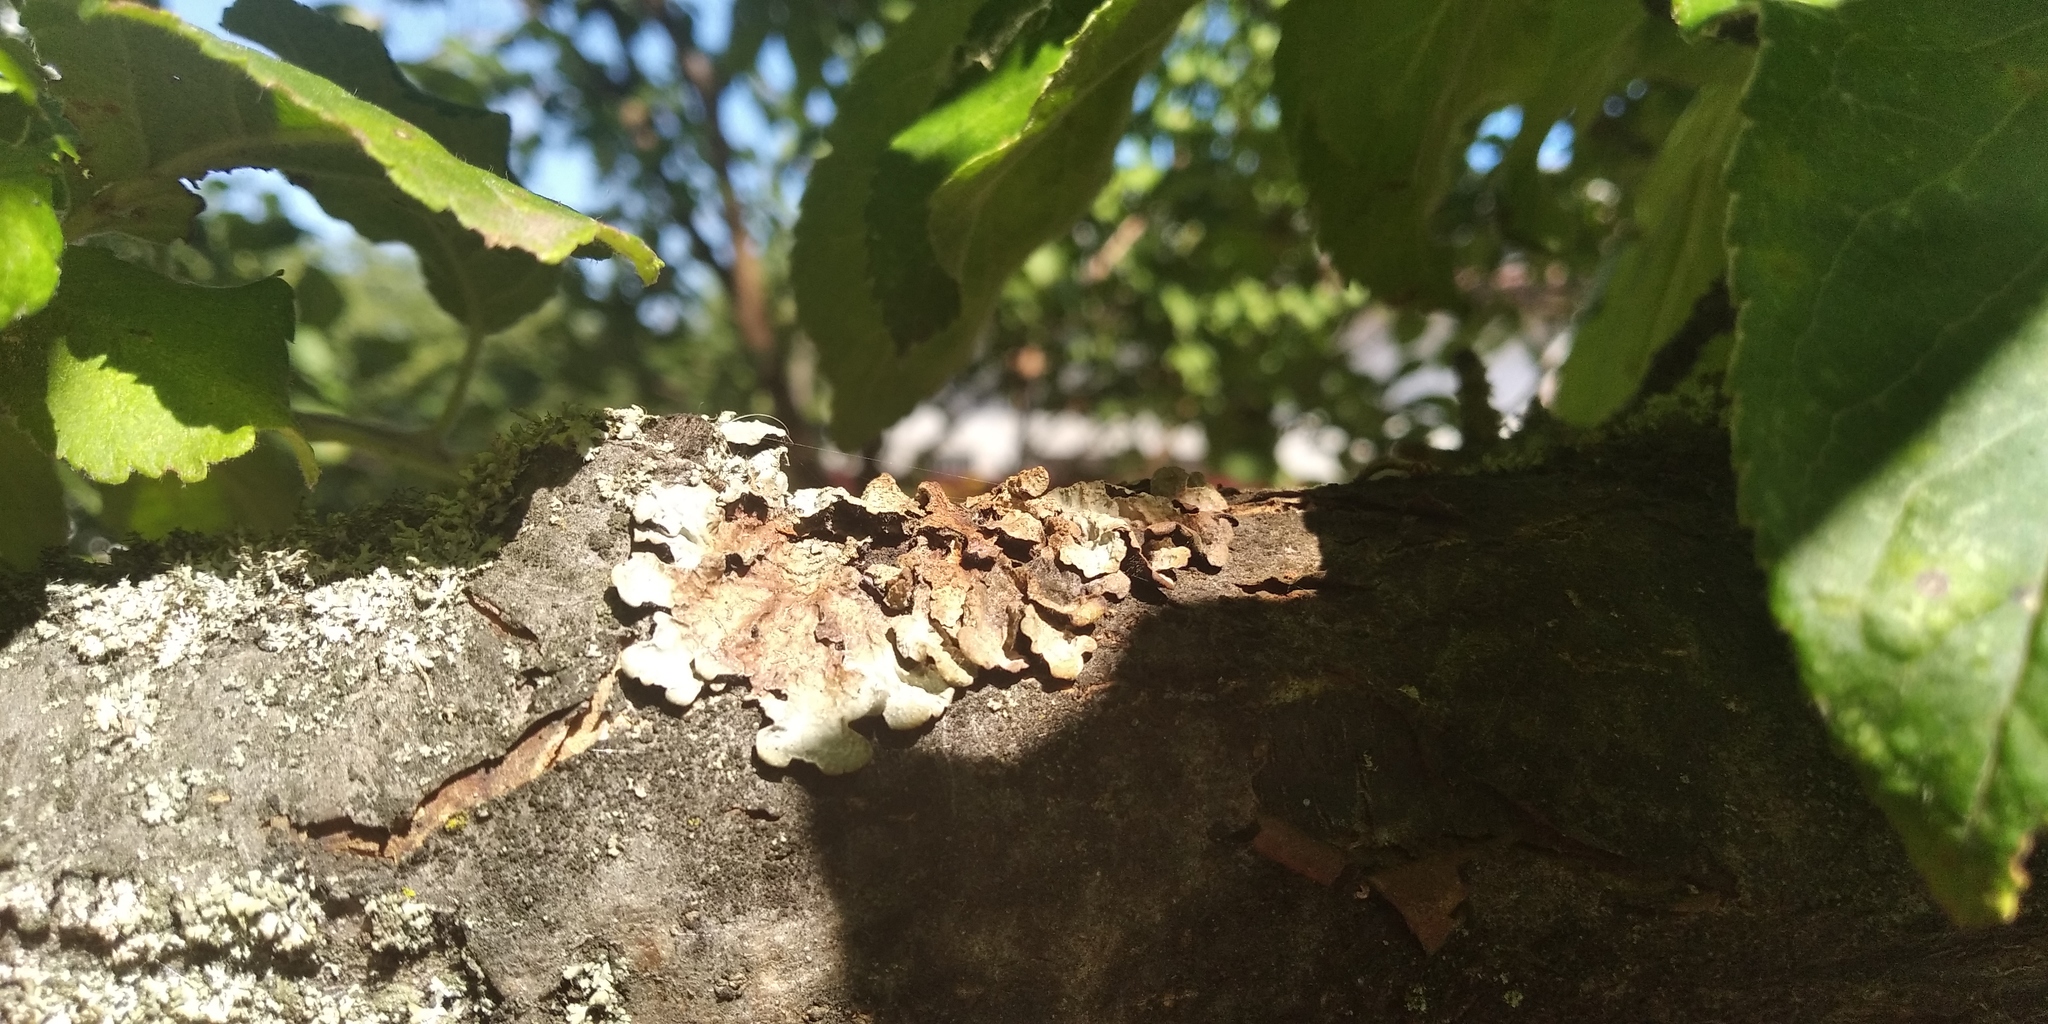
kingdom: Fungi
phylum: Ascomycota
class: Lecanoromycetes
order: Lecanorales
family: Parmeliaceae
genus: Parmelia
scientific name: Parmelia sulcata
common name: Netted shield lichen
